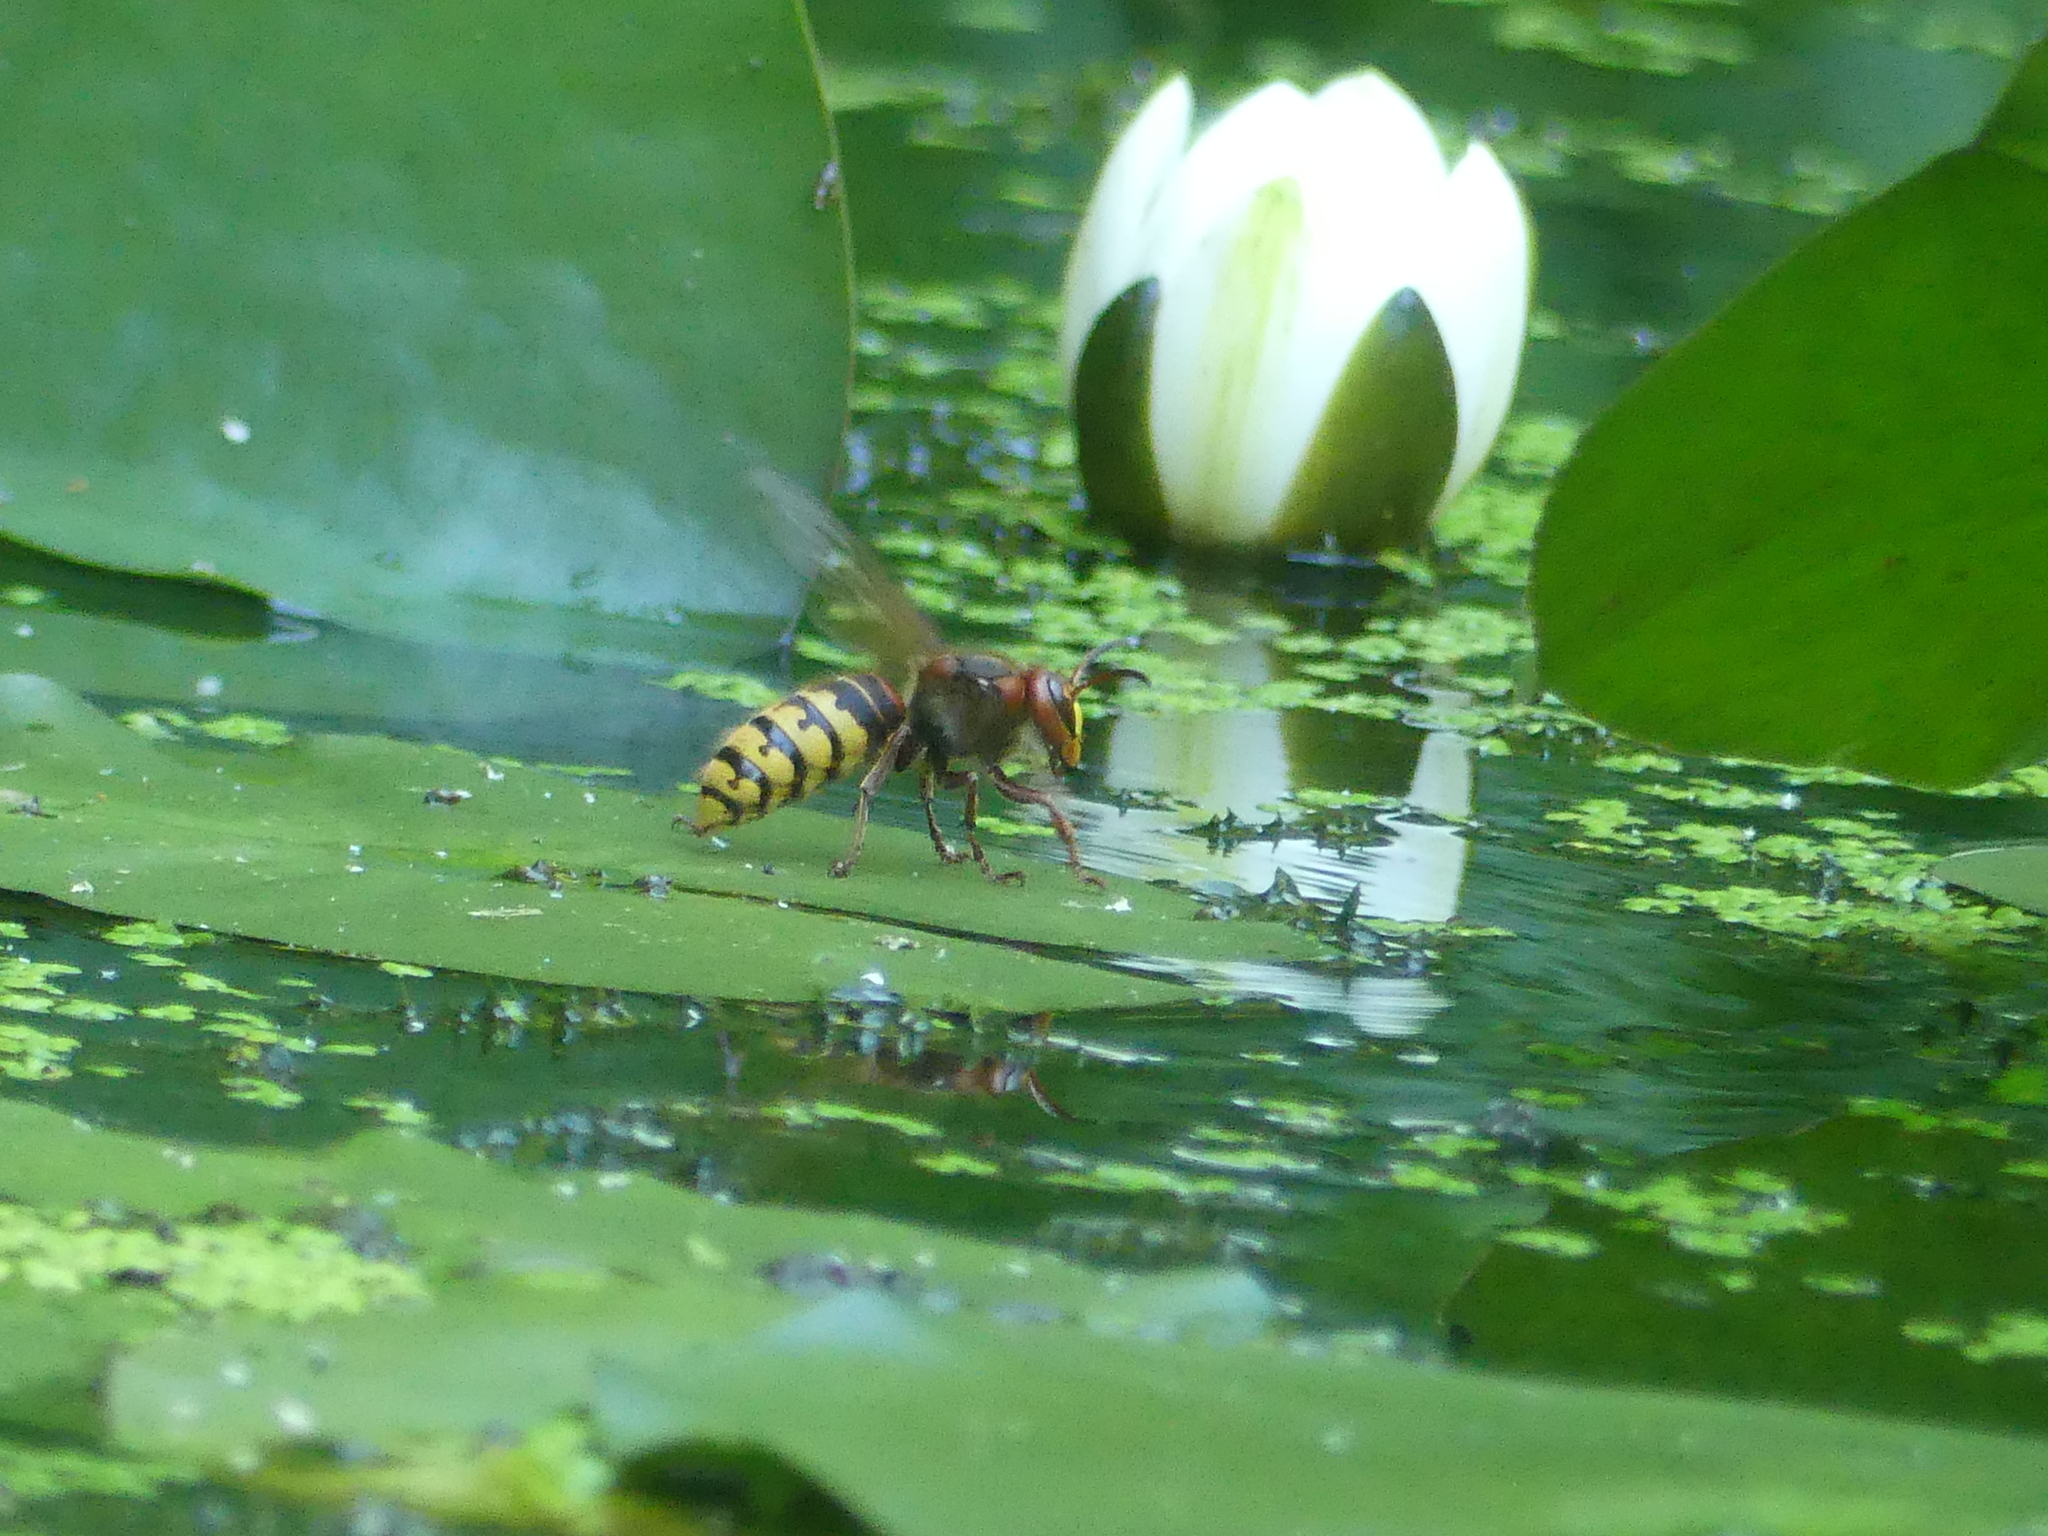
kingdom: Animalia
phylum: Arthropoda
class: Insecta
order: Hymenoptera
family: Vespidae
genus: Vespa
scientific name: Vespa crabro
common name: Hornet
